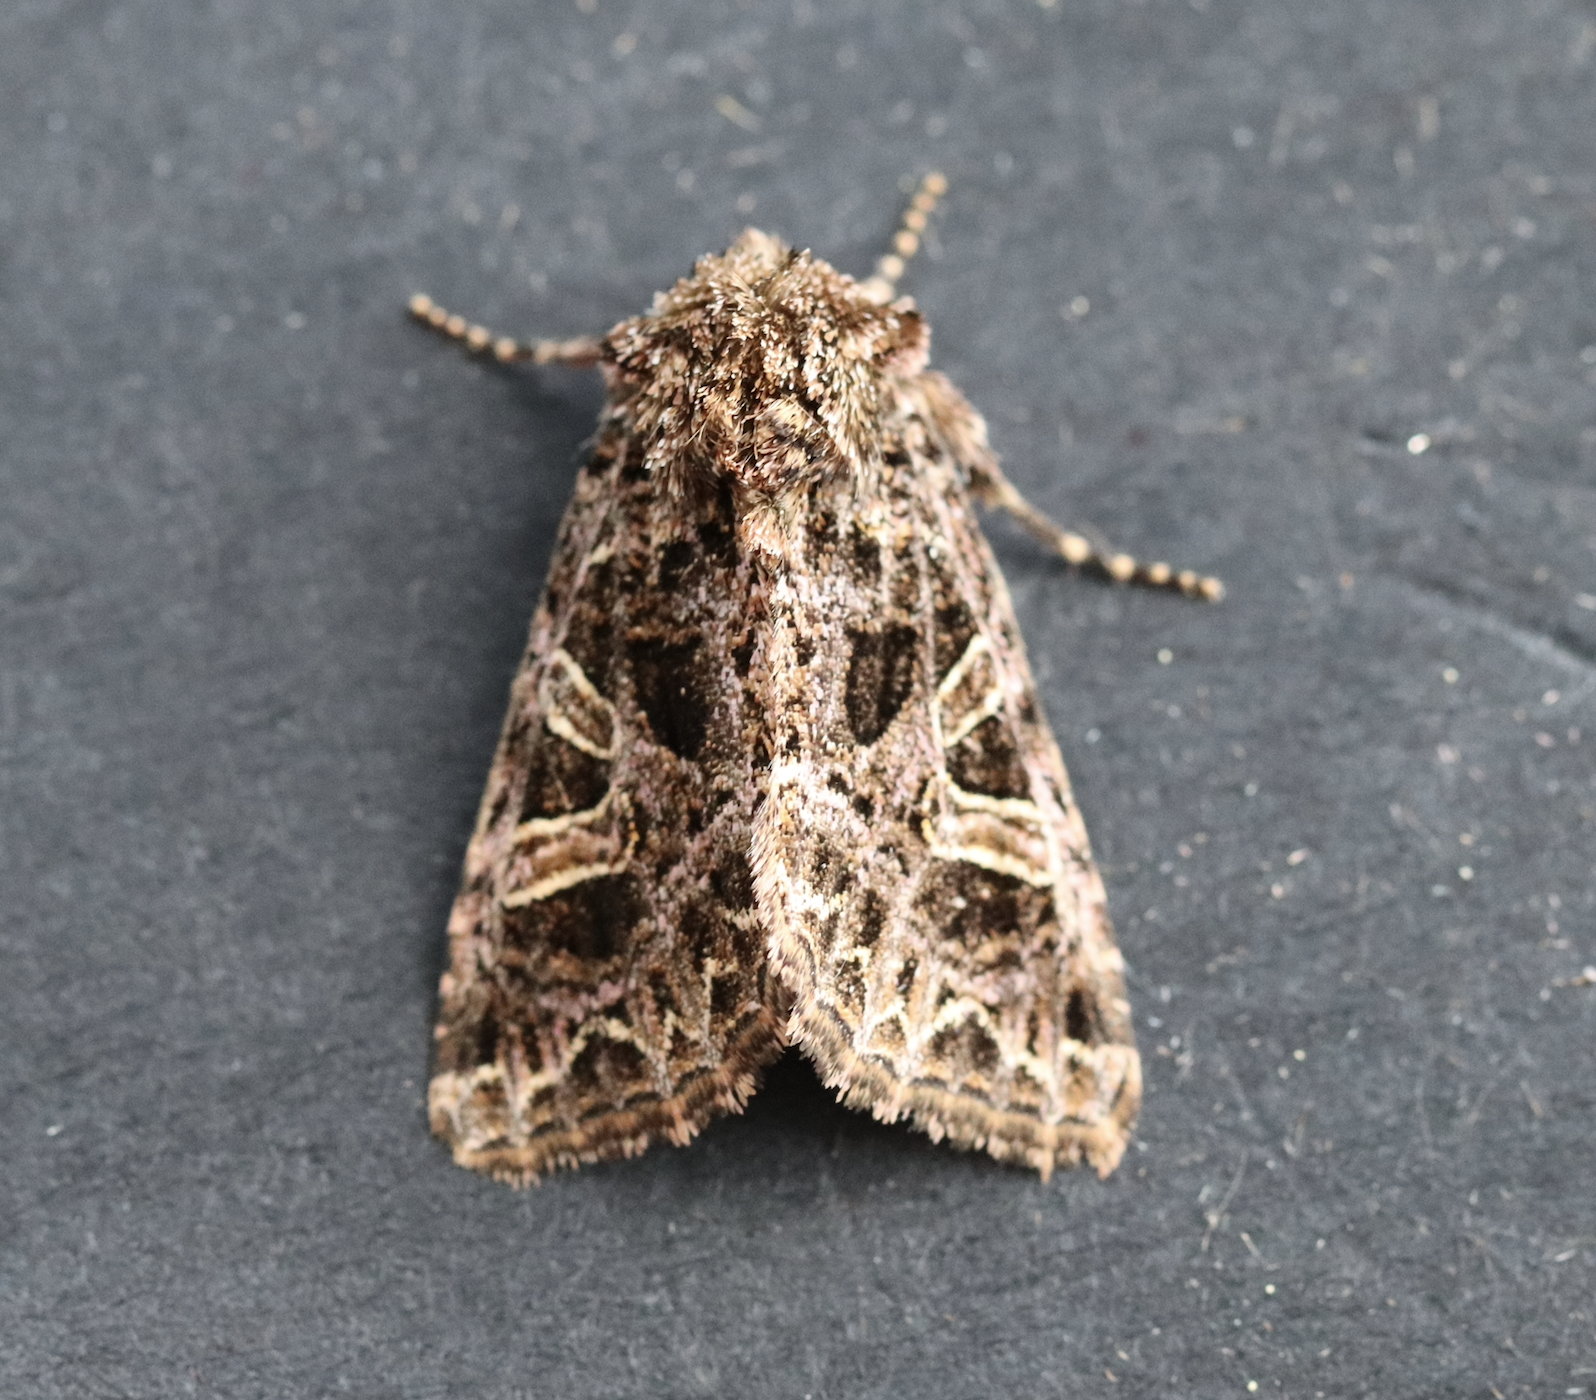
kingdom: Animalia
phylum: Arthropoda
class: Insecta
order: Lepidoptera
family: Noctuidae
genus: Sideridis
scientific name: Sideridis rivularis
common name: Campion
